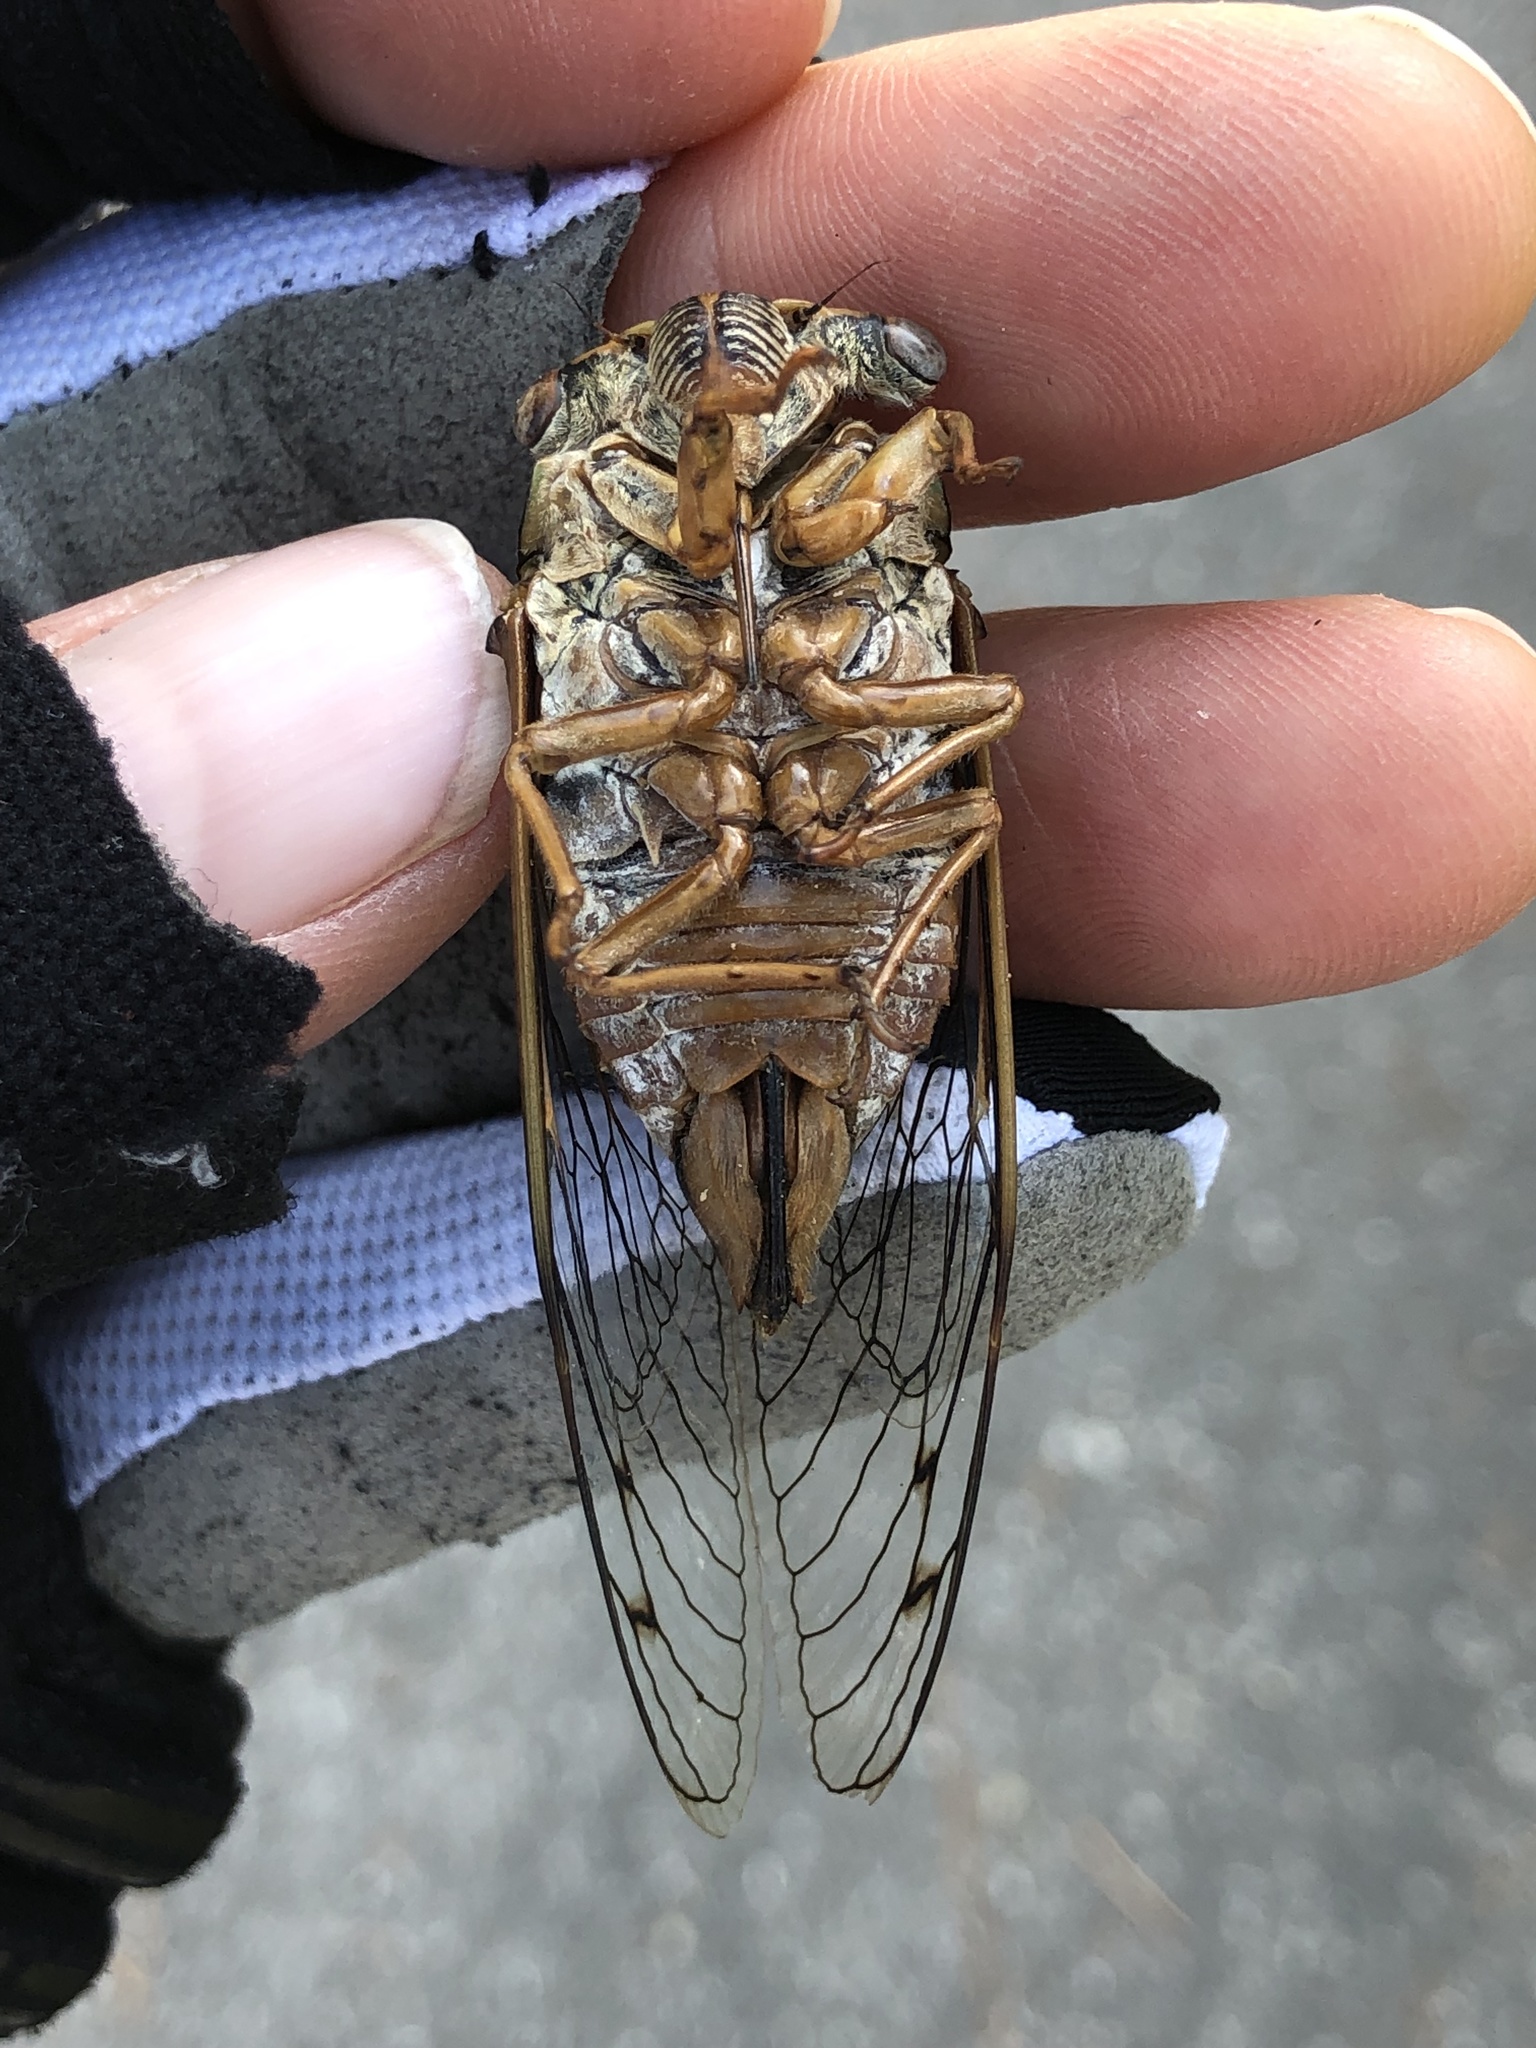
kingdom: Animalia
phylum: Arthropoda
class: Insecta
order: Hemiptera
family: Cicadidae
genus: Megatibicen
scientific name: Megatibicen resh
